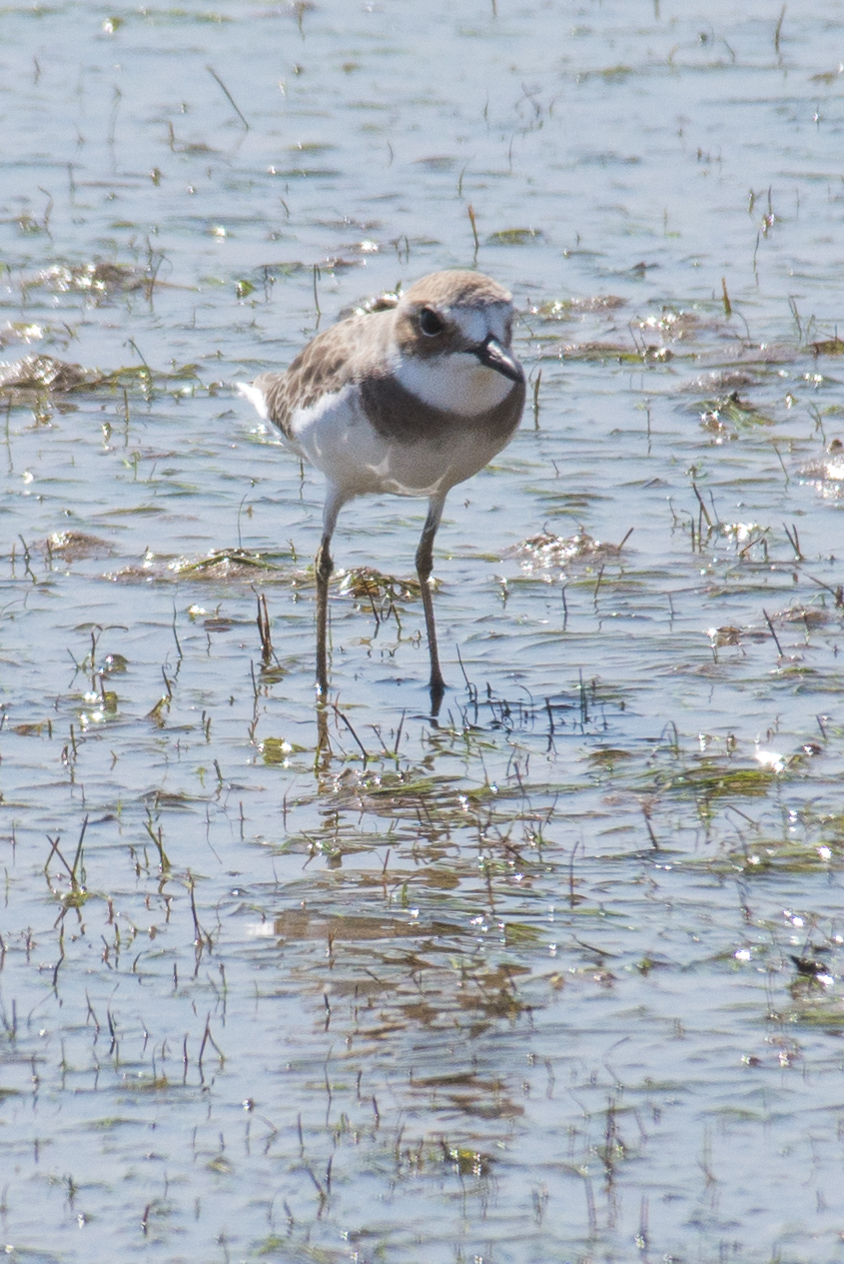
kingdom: Animalia
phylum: Chordata
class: Aves
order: Charadriiformes
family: Charadriidae
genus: Charadrius
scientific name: Charadrius leschenaultii
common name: Greater sand plover
